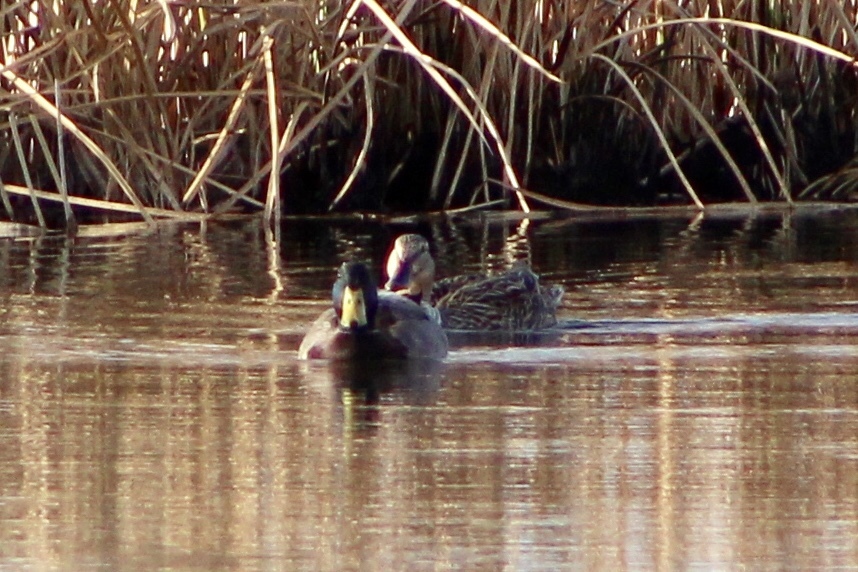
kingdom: Animalia
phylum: Chordata
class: Aves
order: Anseriformes
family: Anatidae
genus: Anas
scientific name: Anas platyrhynchos
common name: Mallard
